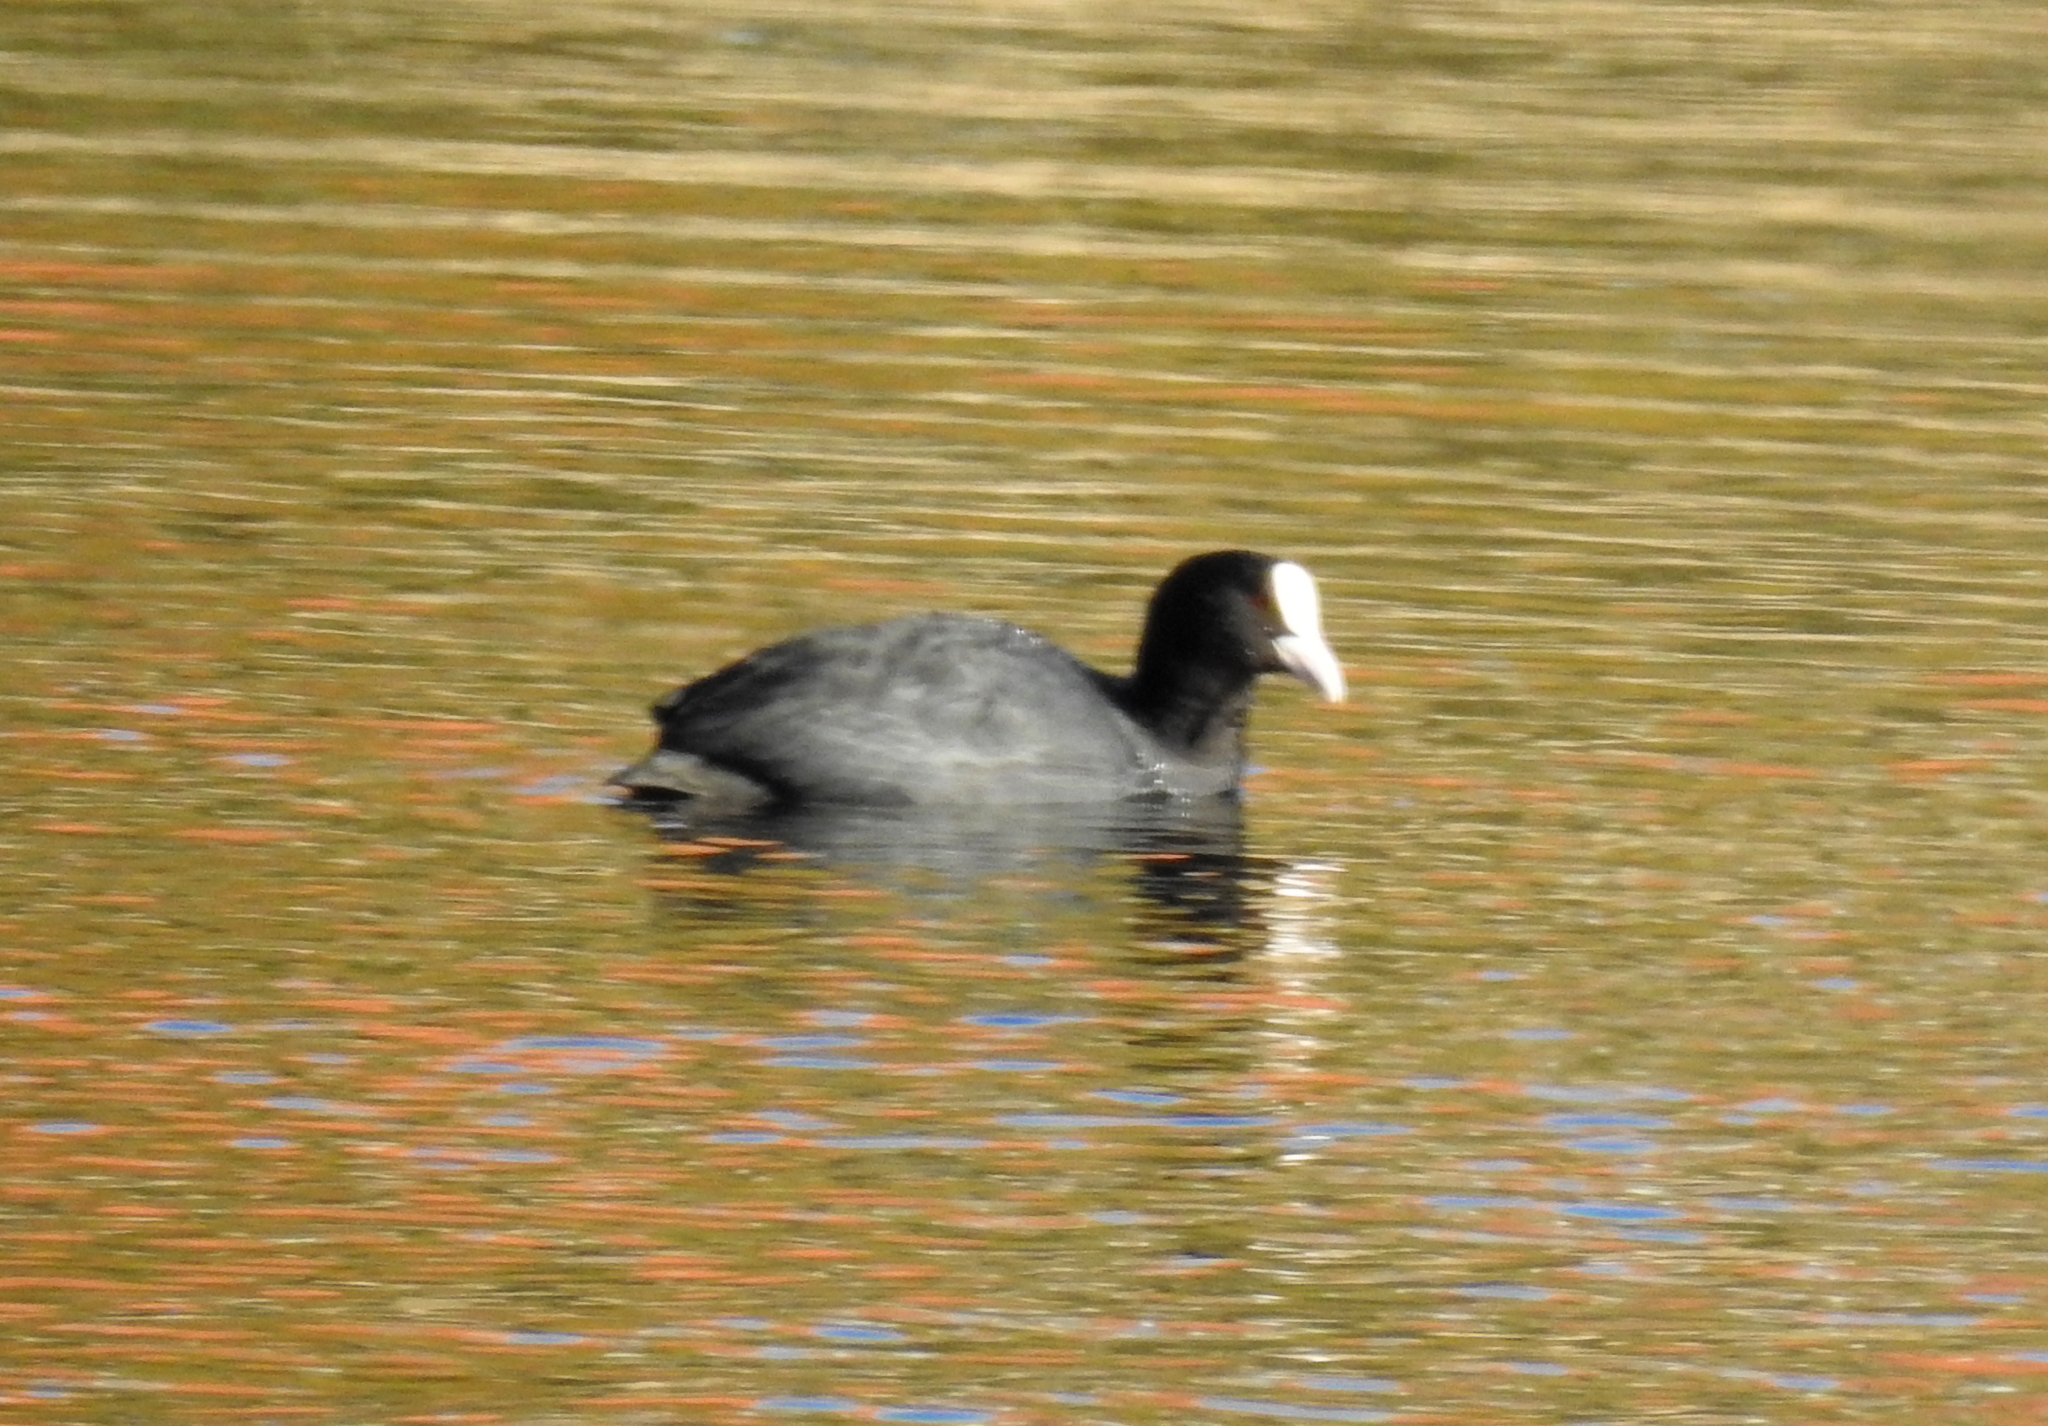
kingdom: Animalia
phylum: Chordata
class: Aves
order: Gruiformes
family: Rallidae
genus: Fulica
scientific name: Fulica atra
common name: Eurasian coot
